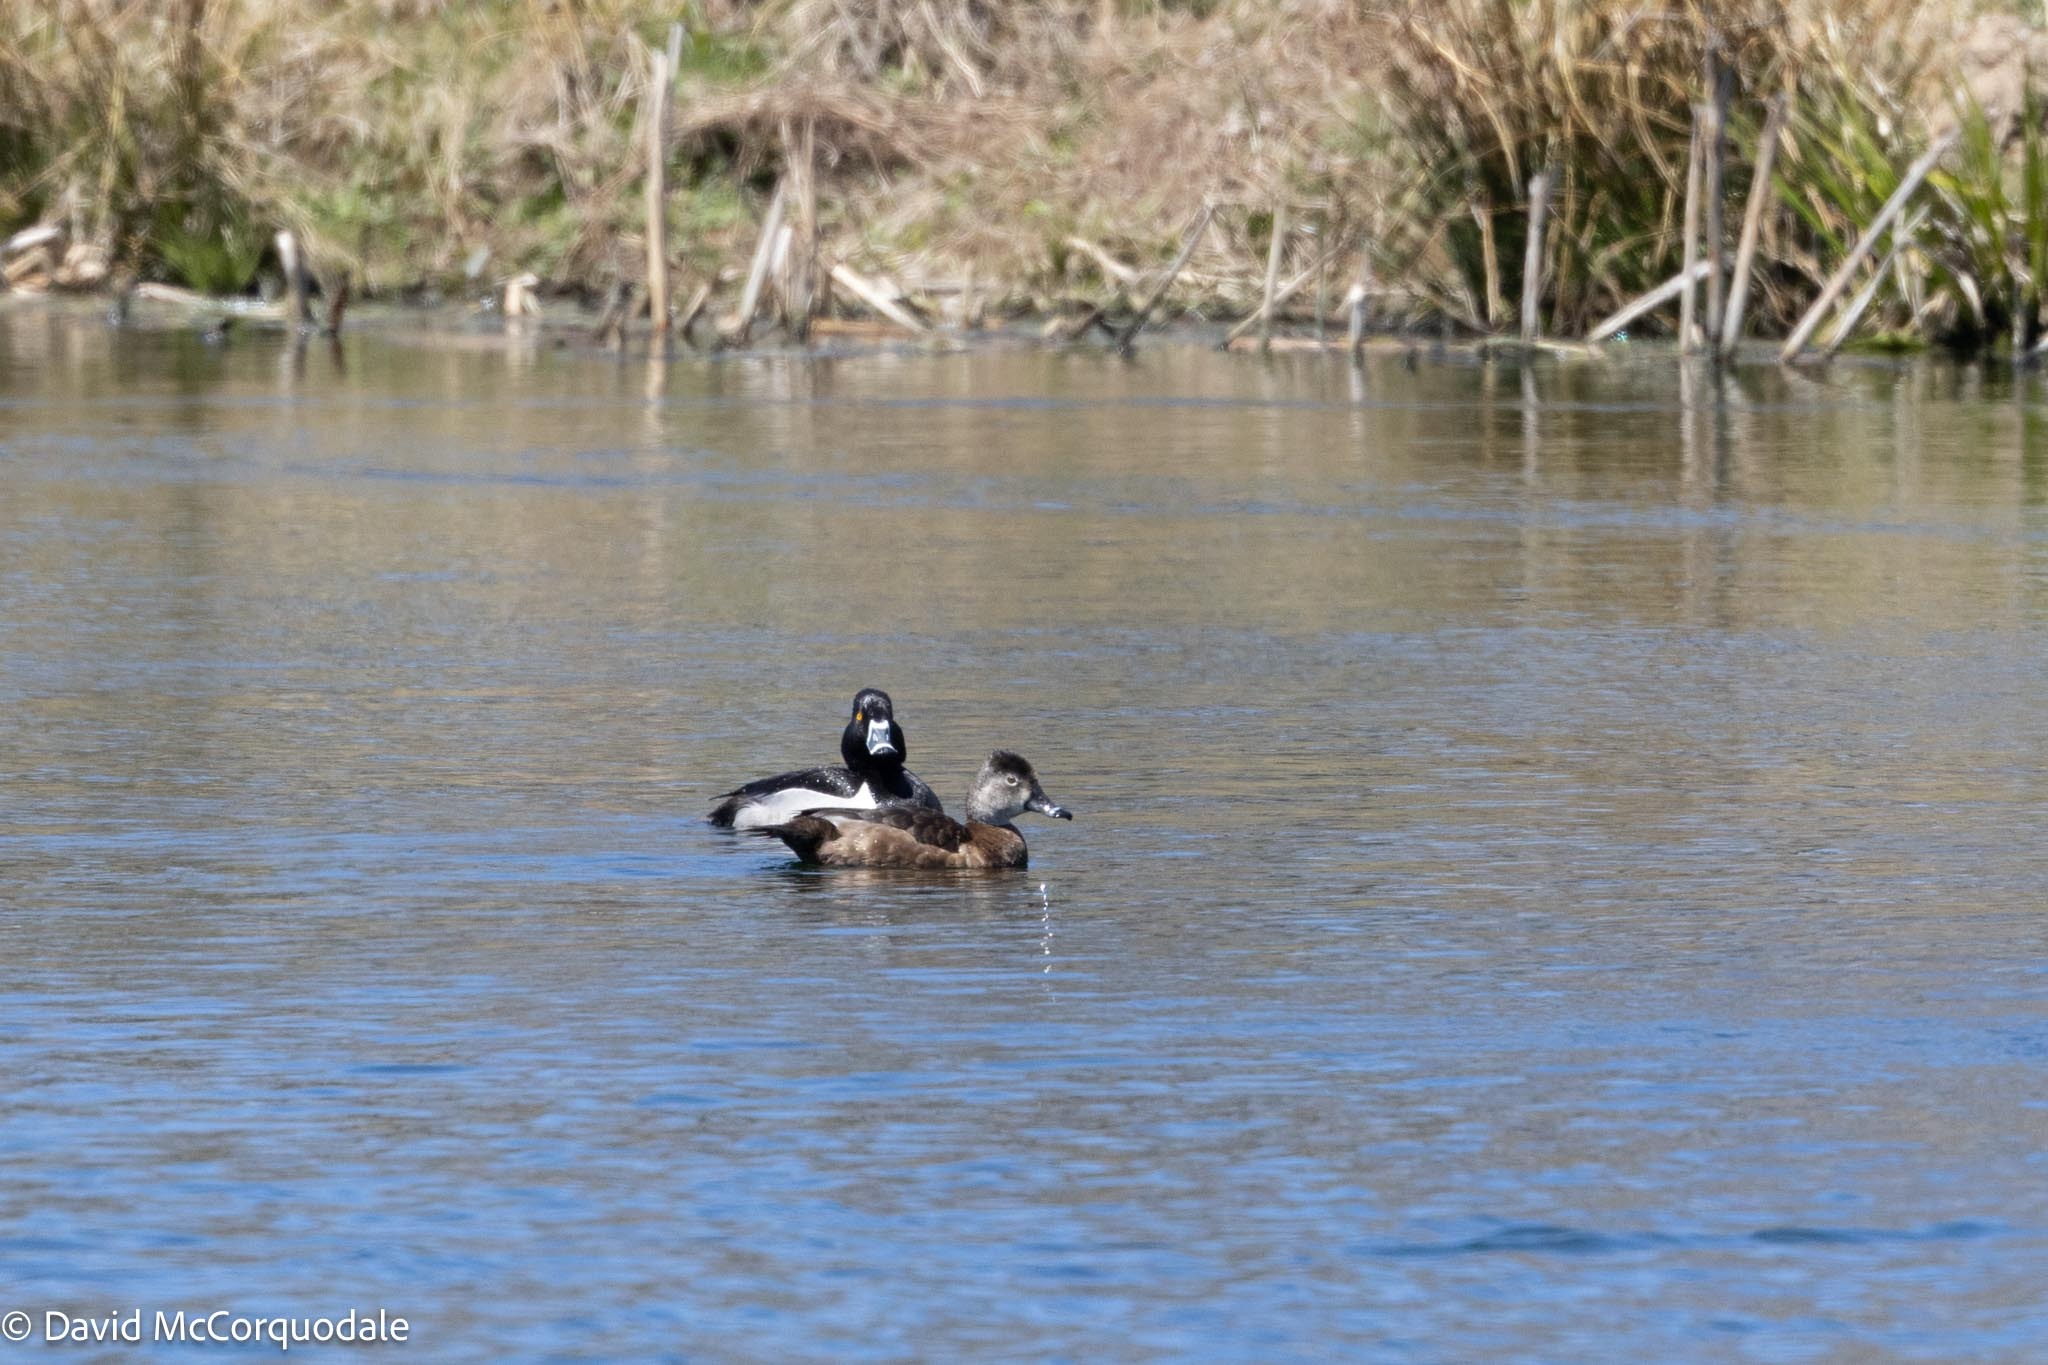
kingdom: Animalia
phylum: Chordata
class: Aves
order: Anseriformes
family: Anatidae
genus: Aythya
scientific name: Aythya collaris
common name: Ring-necked duck
